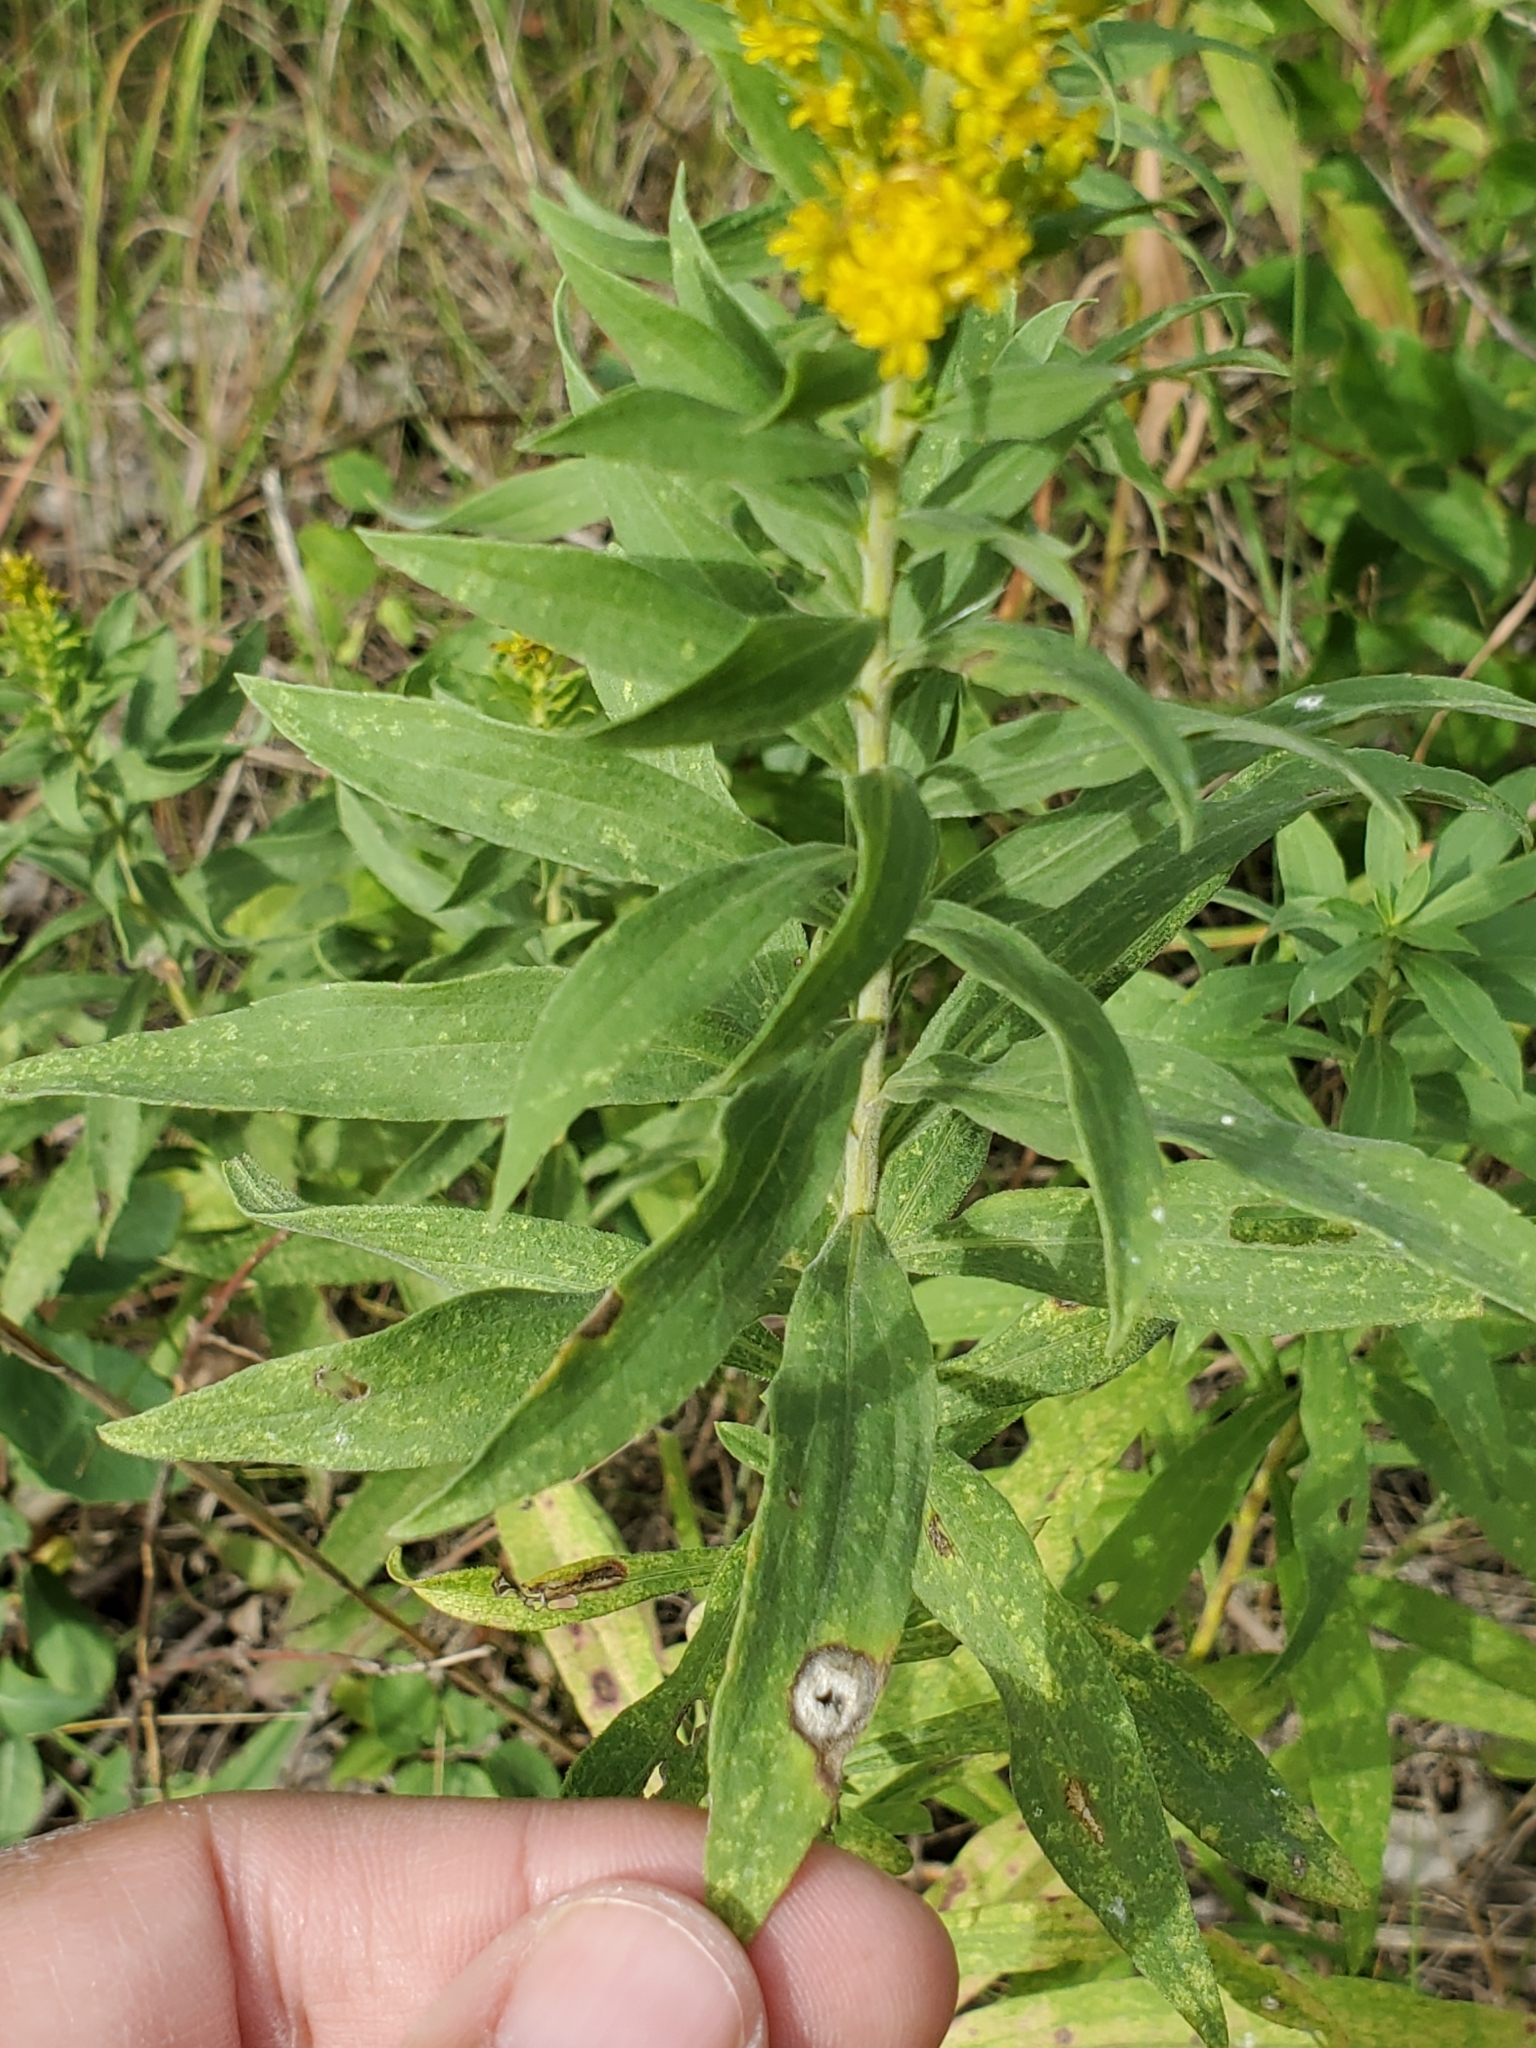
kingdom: Animalia
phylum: Arthropoda
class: Insecta
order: Diptera
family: Cecidomyiidae
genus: Asteromyia
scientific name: Asteromyia carbonifera
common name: Carbonifera goldenrod gall midge
